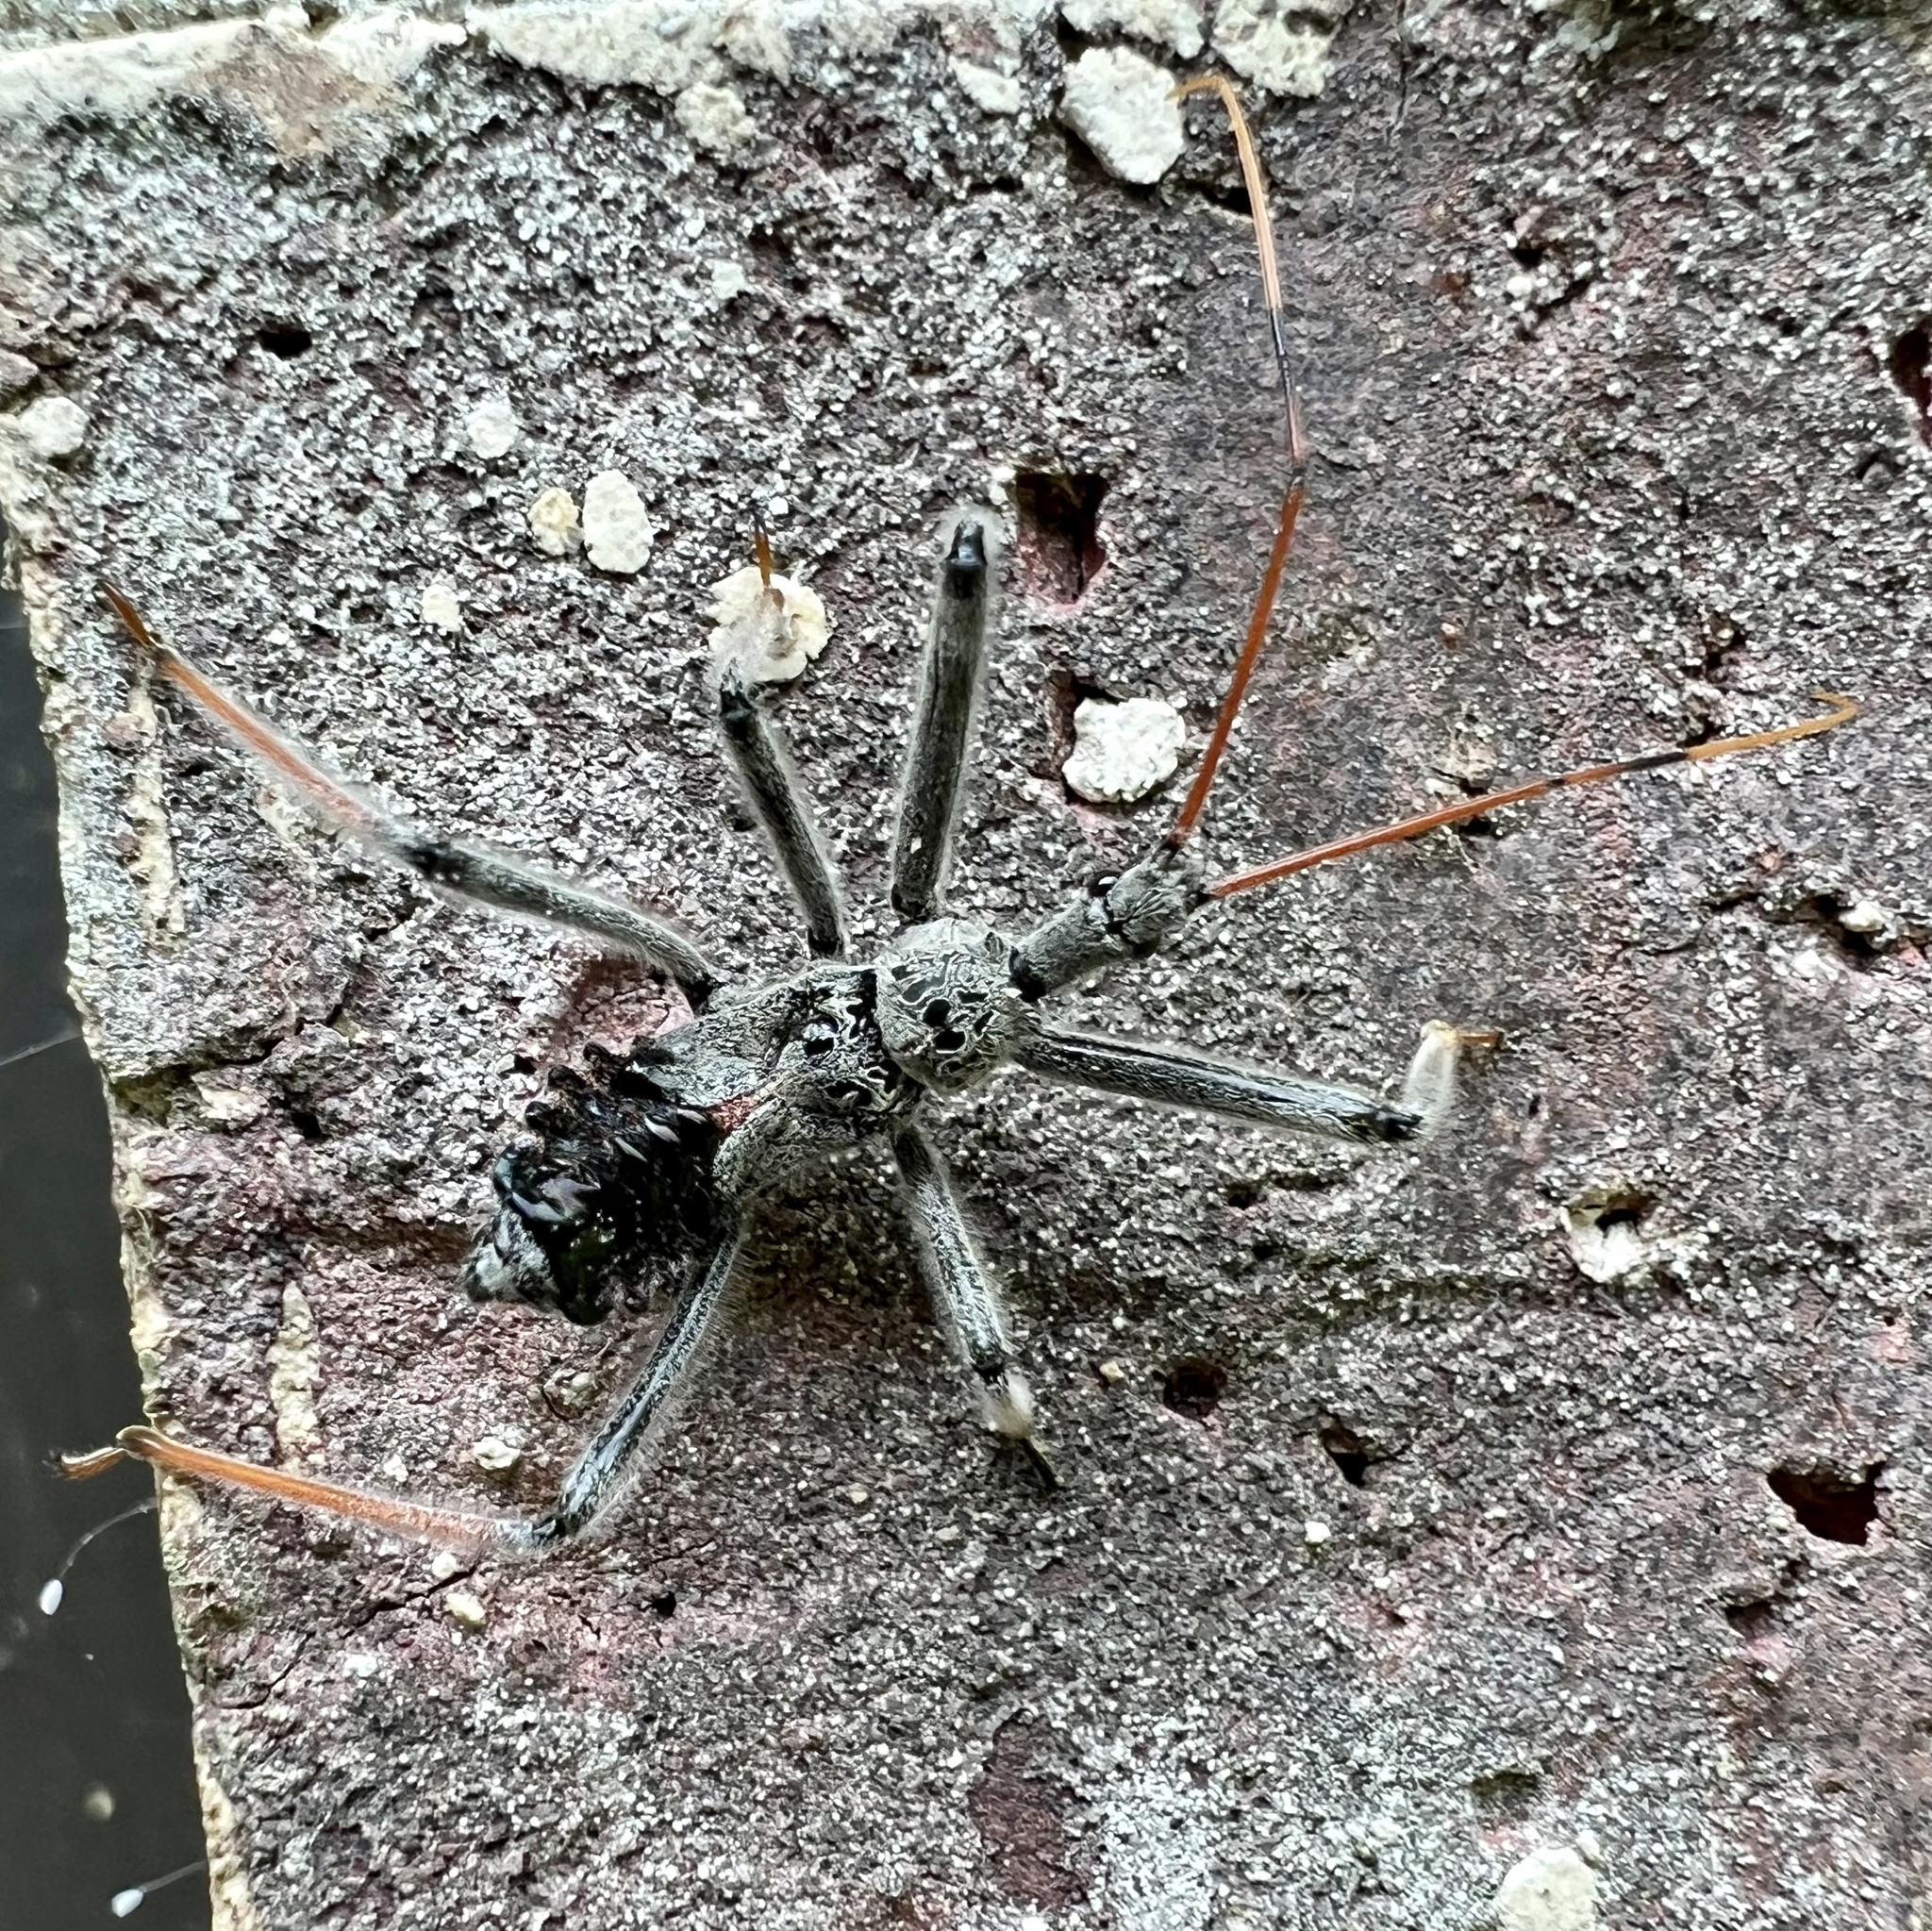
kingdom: Animalia
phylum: Arthropoda
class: Insecta
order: Hemiptera
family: Reduviidae
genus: Arilus
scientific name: Arilus cristatus
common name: North american wheel bug
